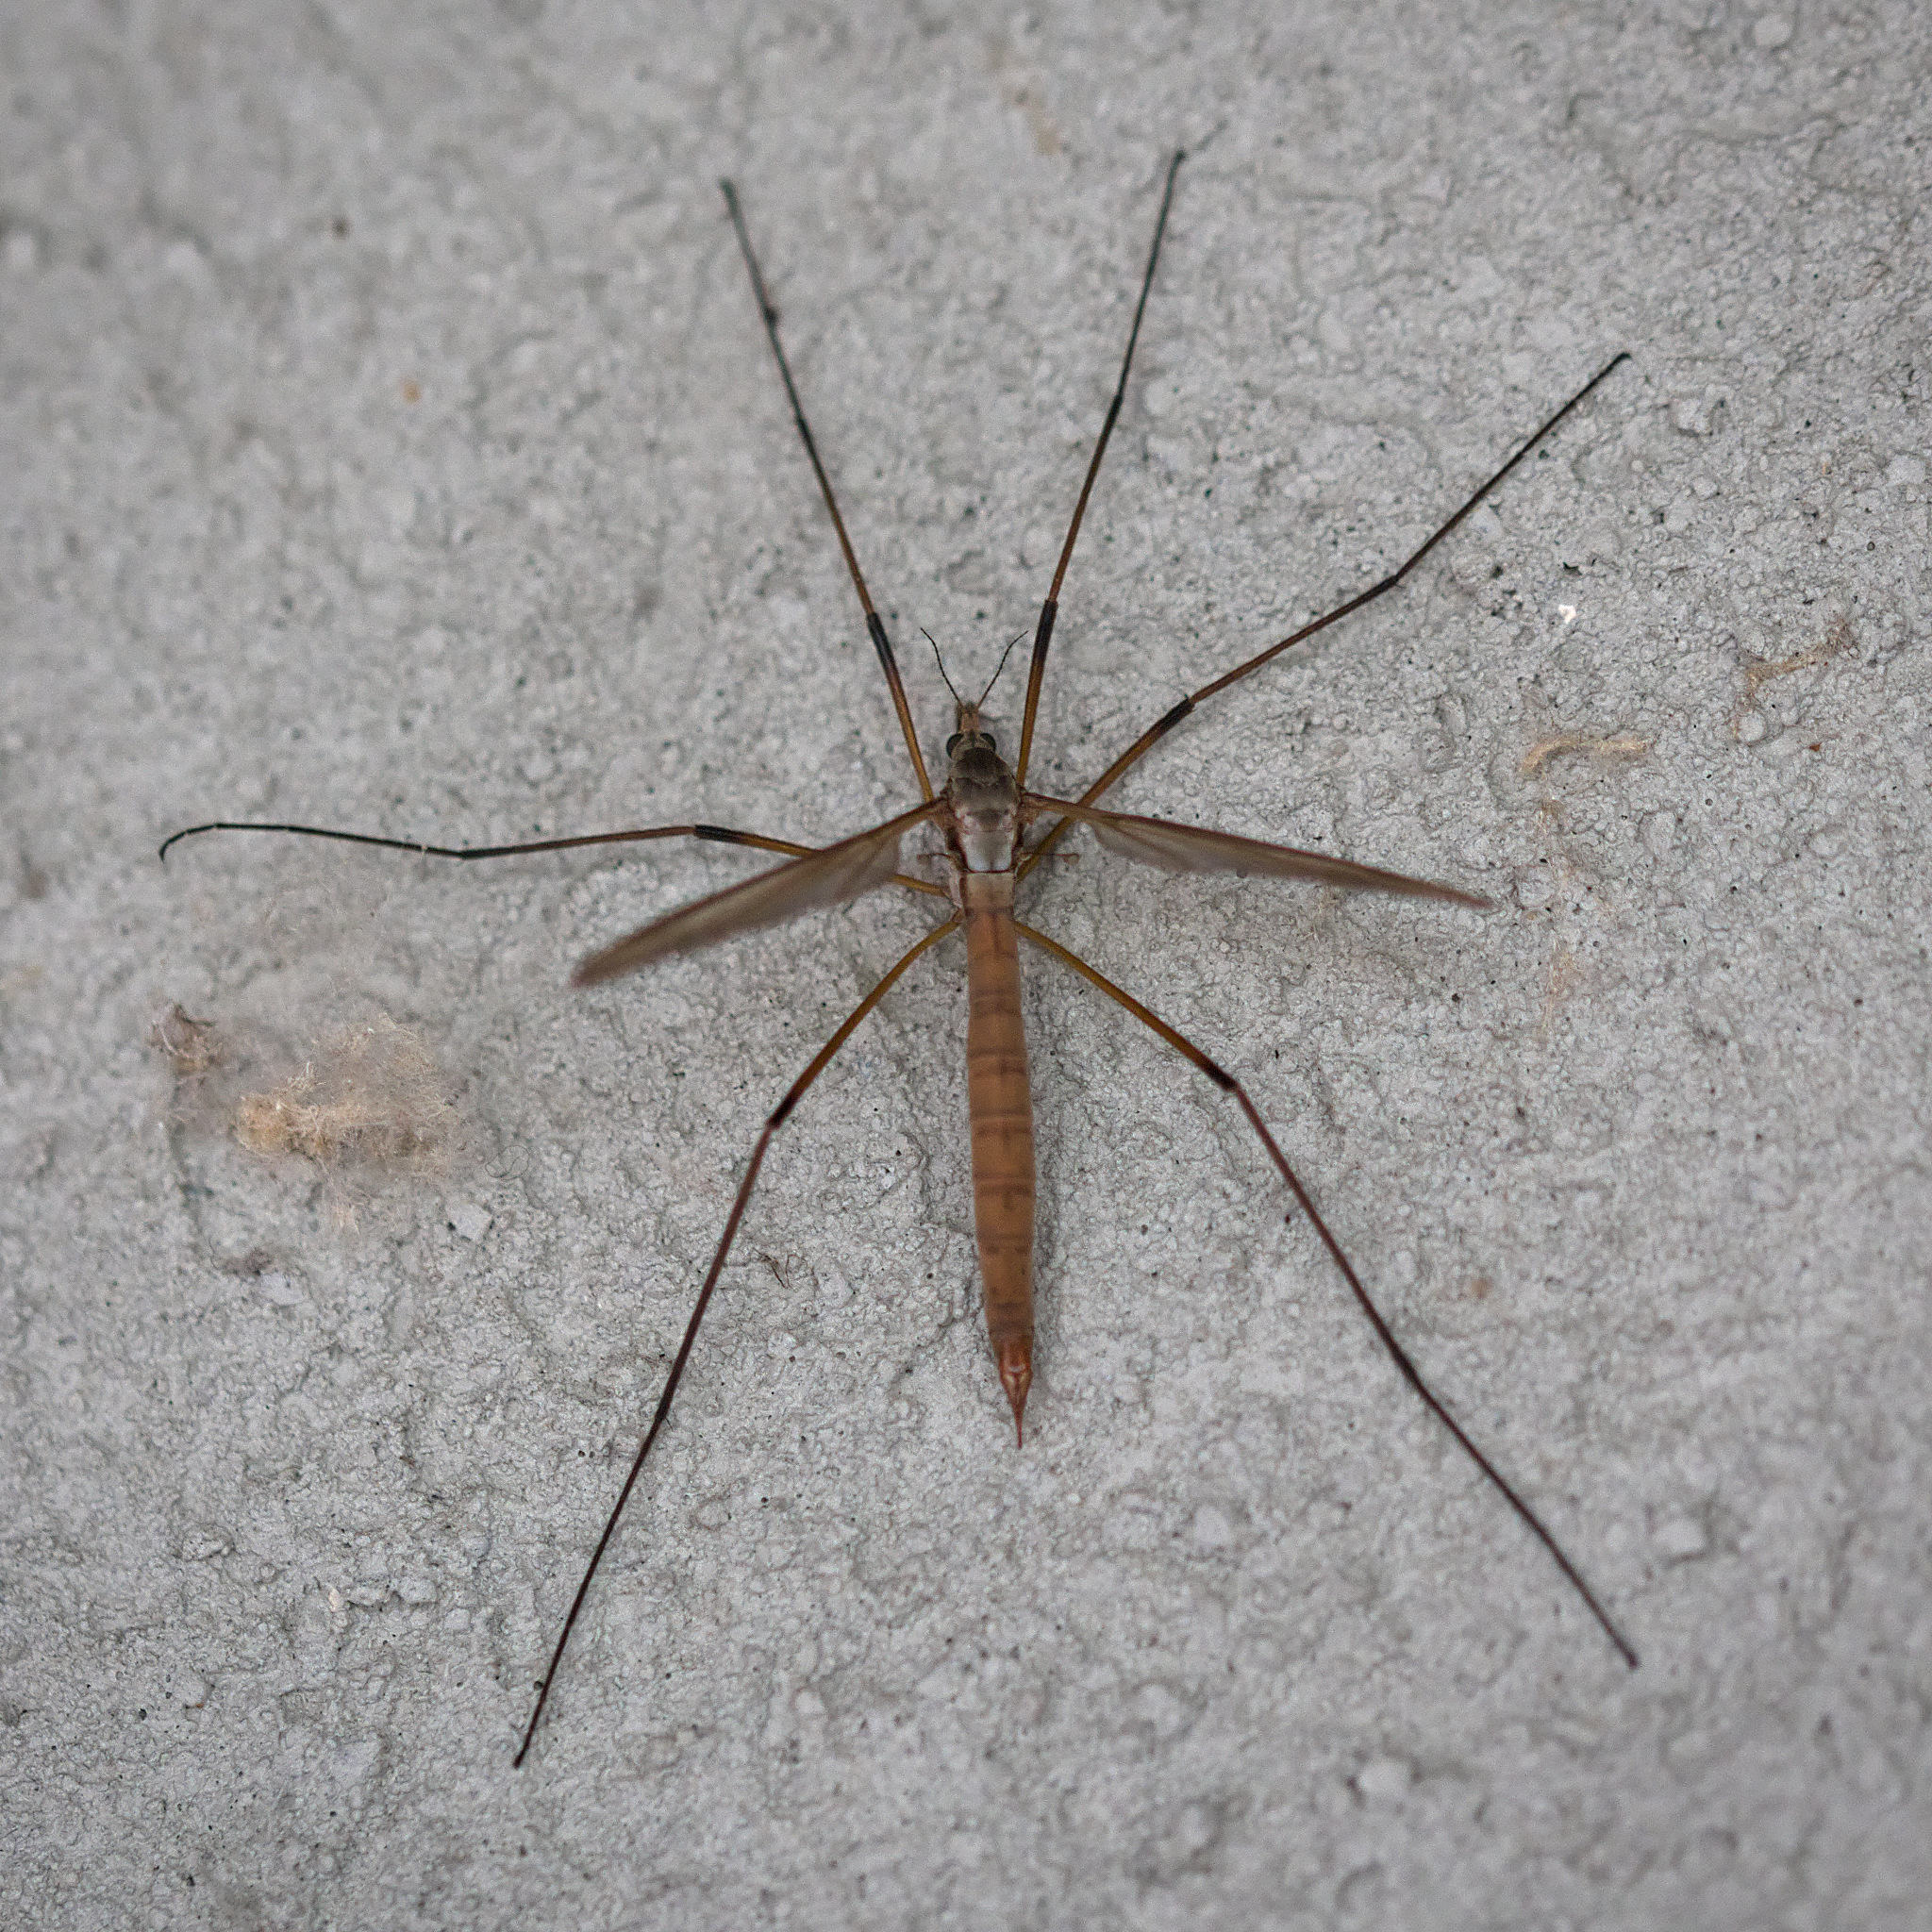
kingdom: Animalia
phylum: Arthropoda
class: Insecta
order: Diptera
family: Tipulidae
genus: Tipula
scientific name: Tipula paludosa
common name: European cranefly
